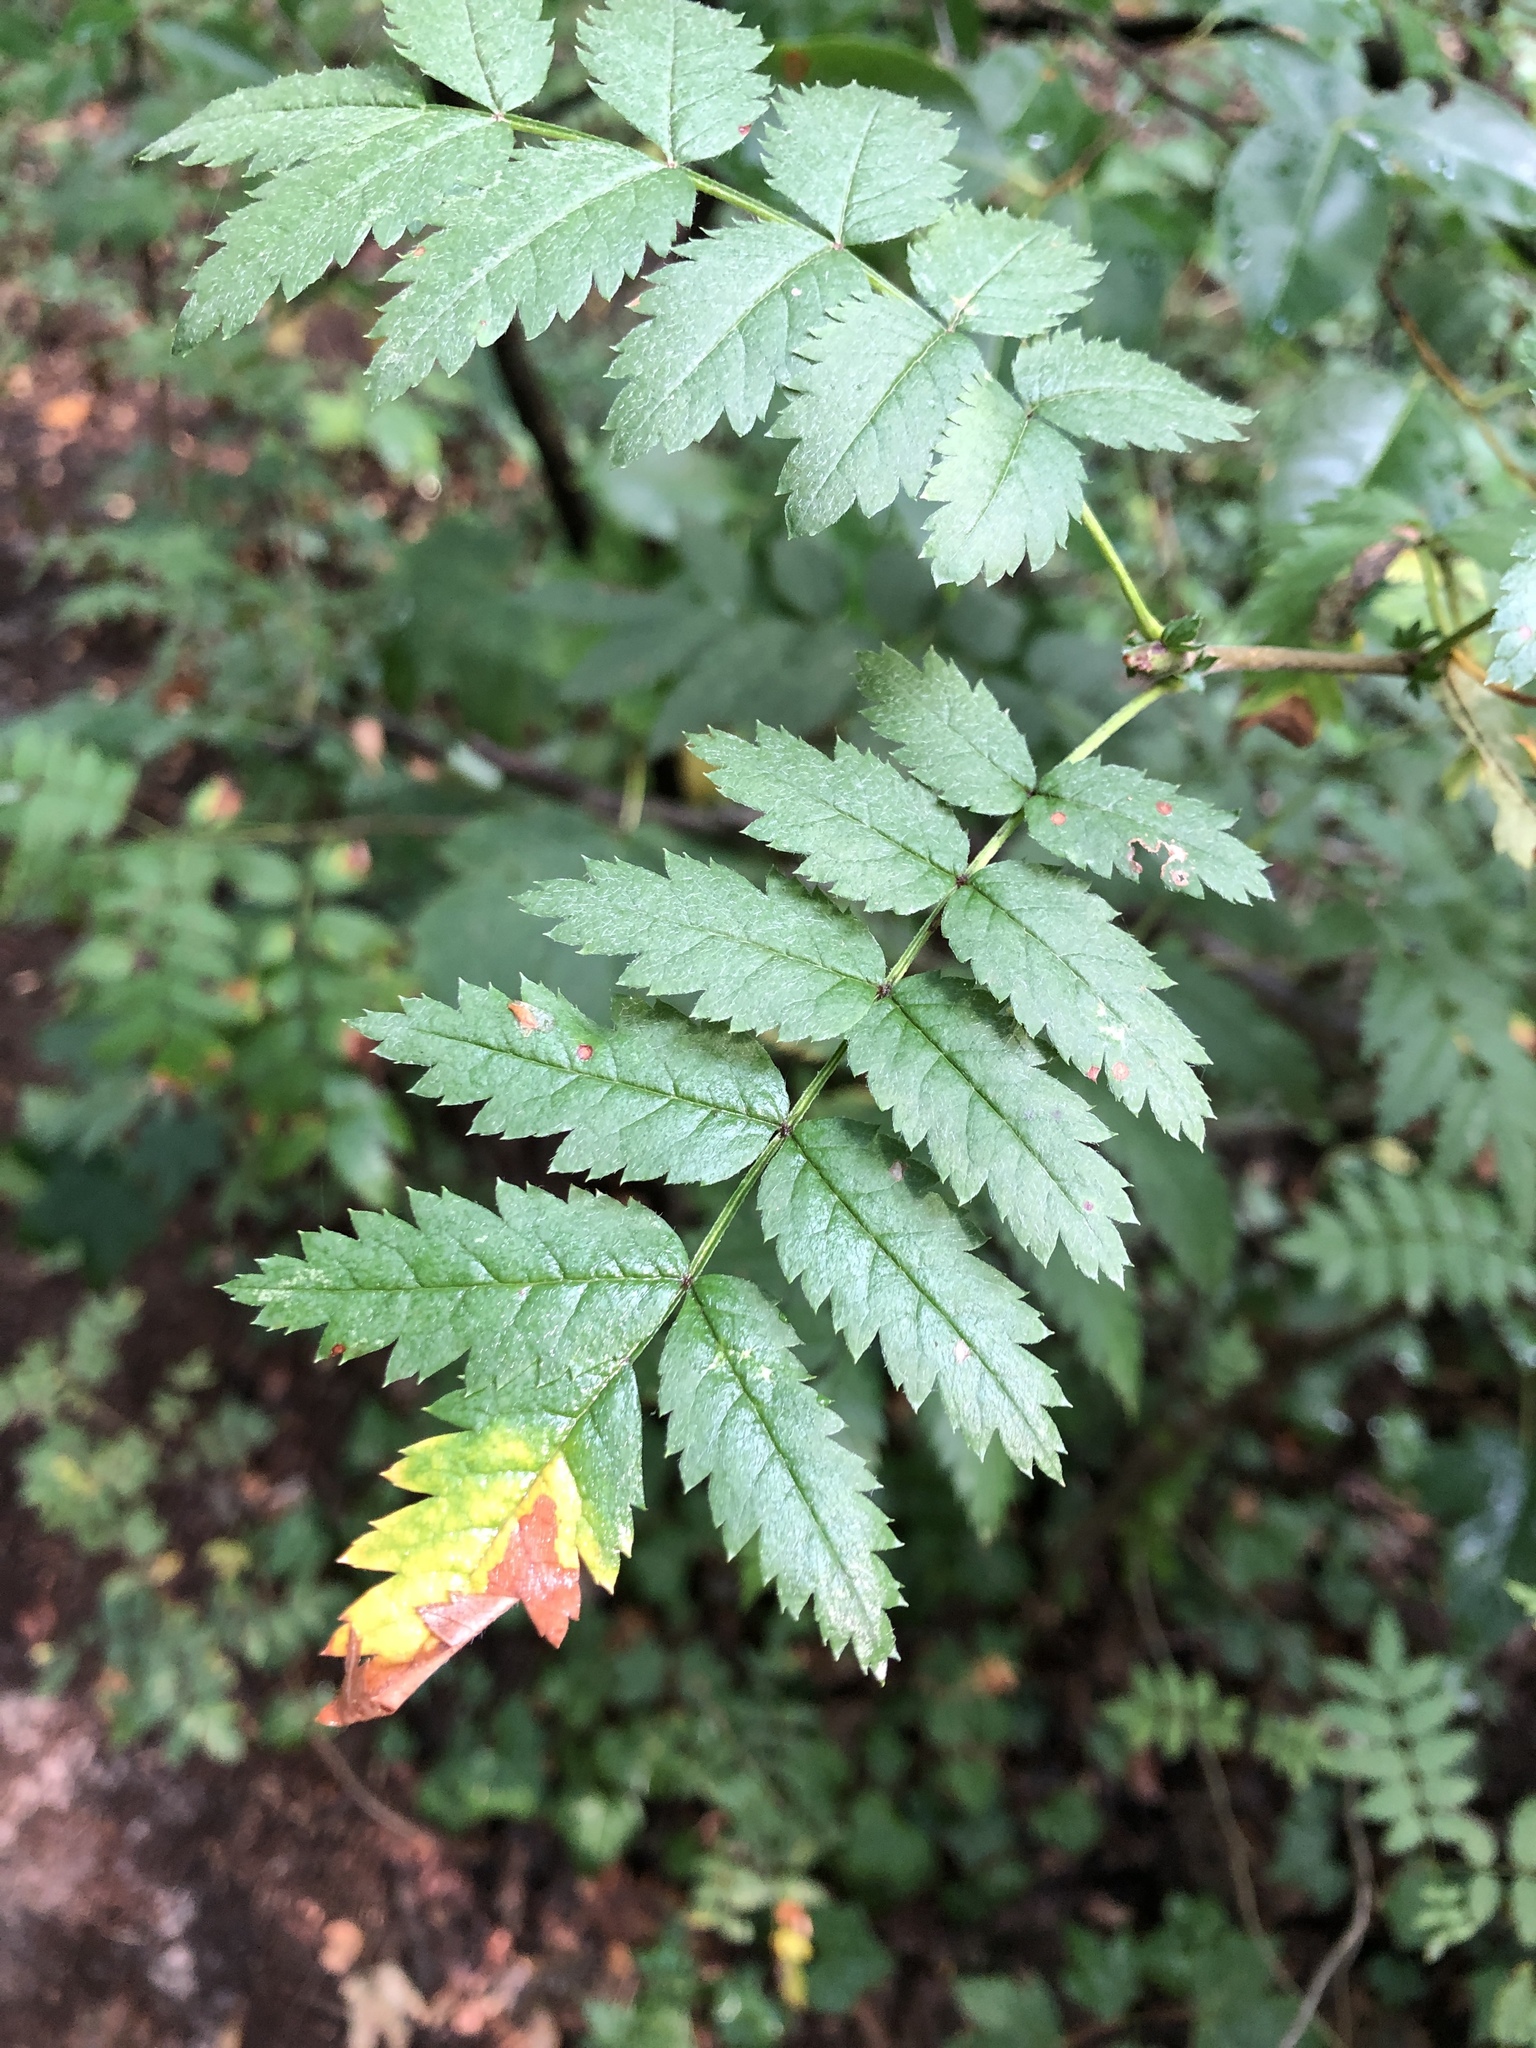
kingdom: Plantae
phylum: Tracheophyta
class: Magnoliopsida
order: Rosales
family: Rosaceae
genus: Sorbus
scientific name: Sorbus aucuparia
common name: Rowan
